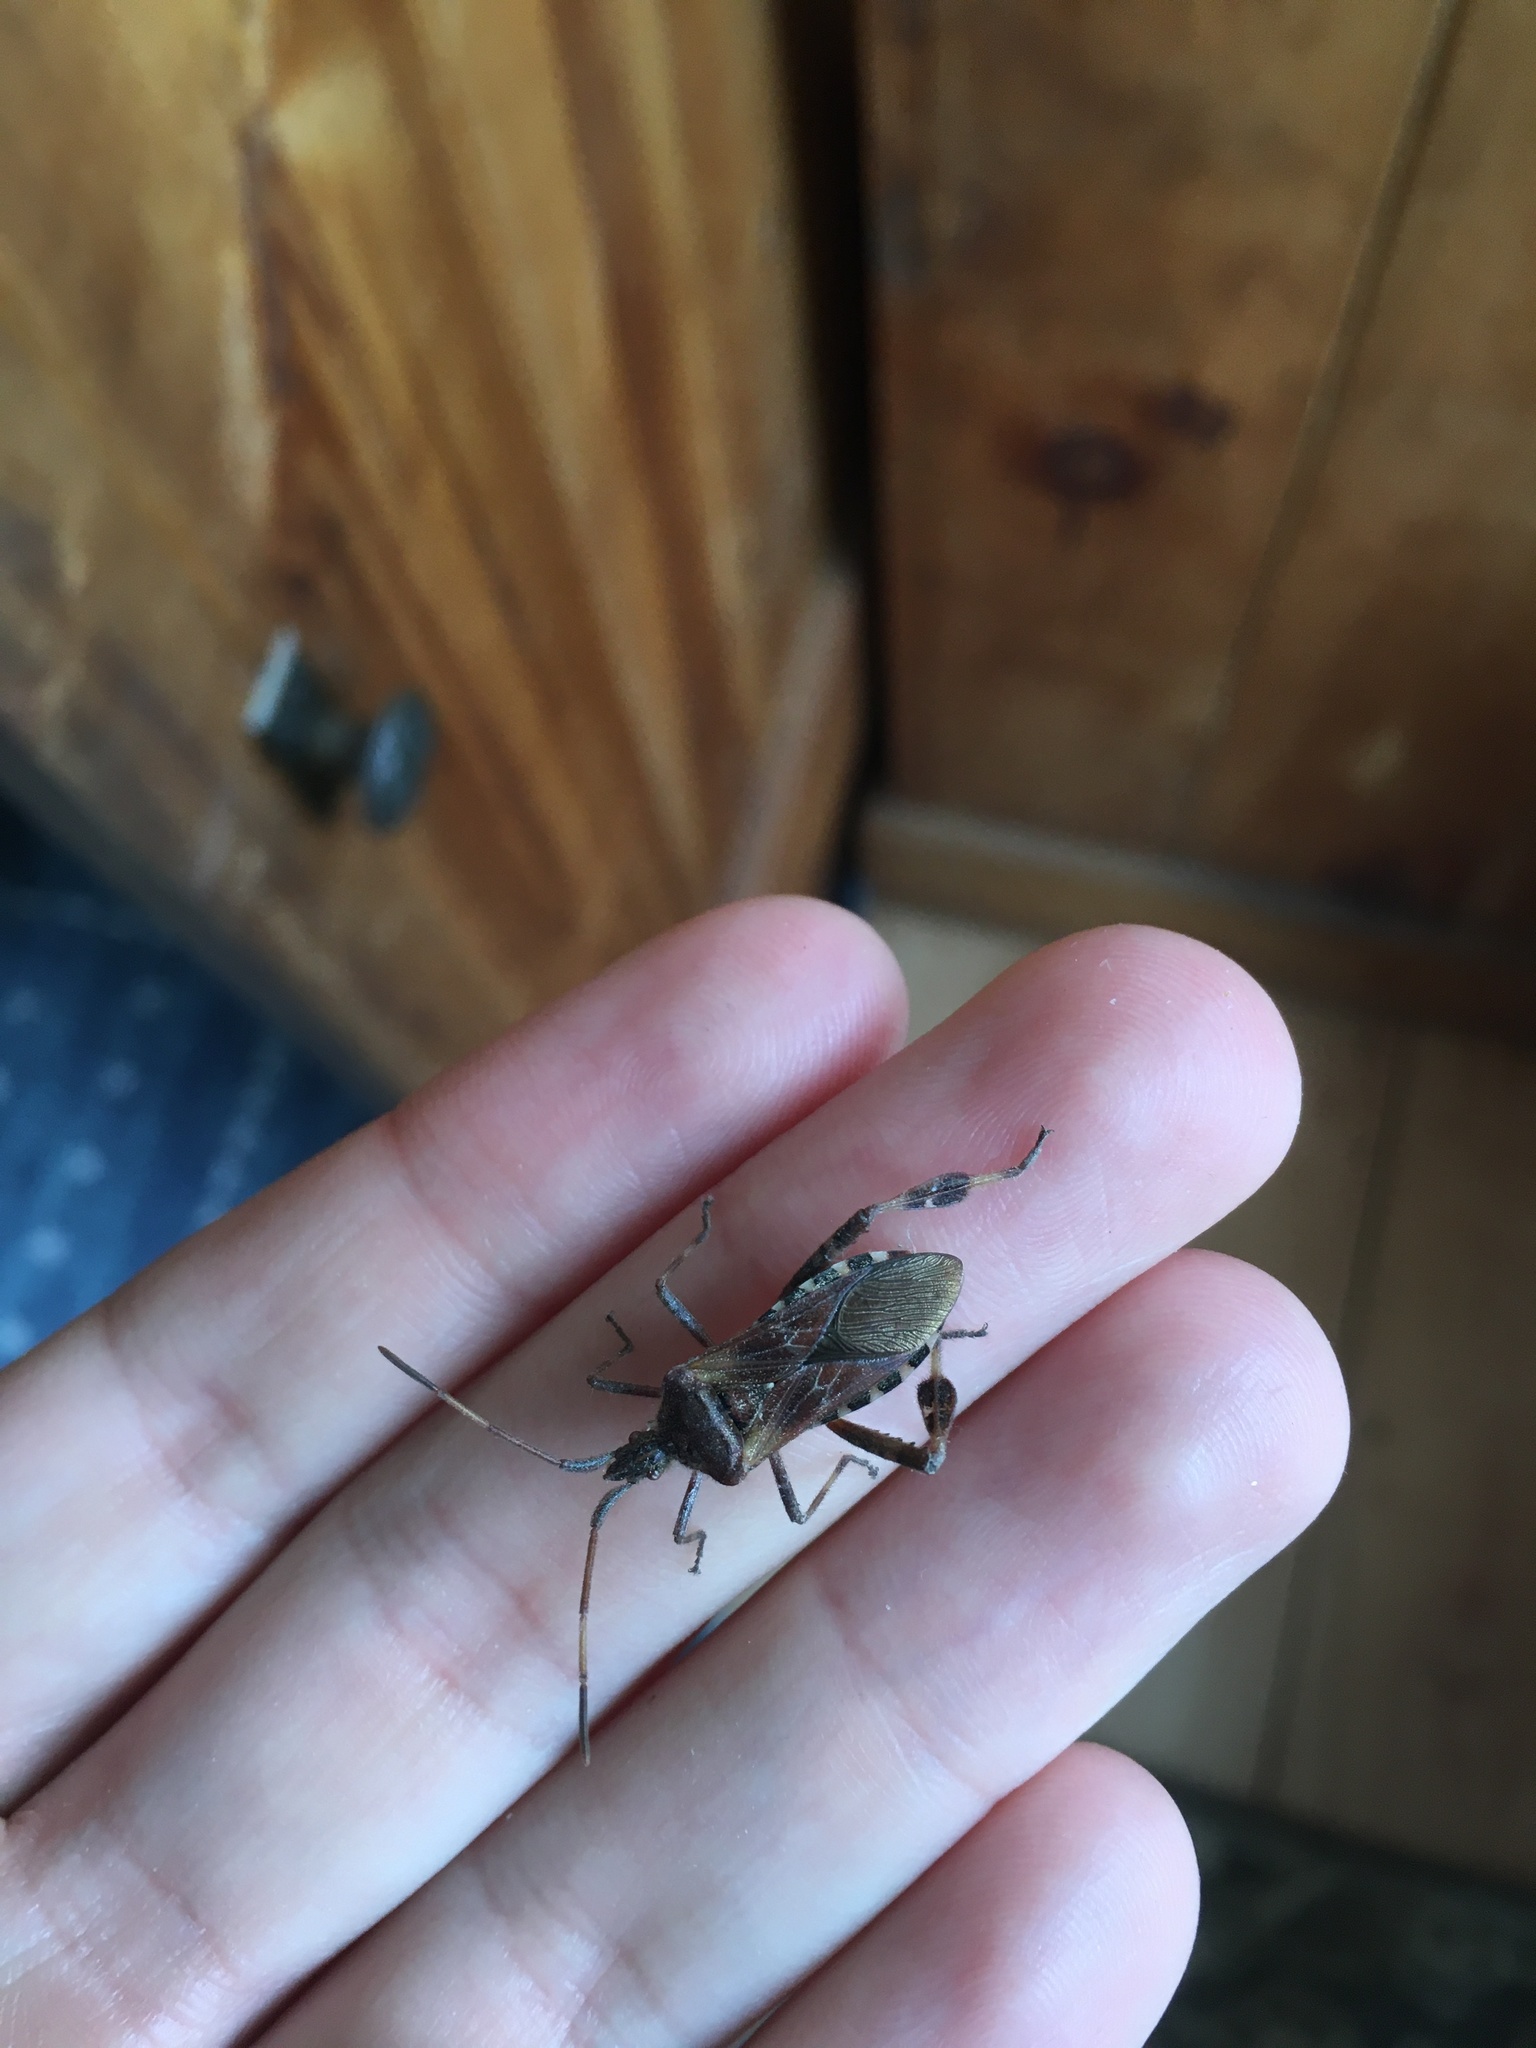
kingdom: Animalia
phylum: Arthropoda
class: Insecta
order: Hemiptera
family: Coreidae
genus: Leptoglossus
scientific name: Leptoglossus occidentalis
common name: Western conifer-seed bug
